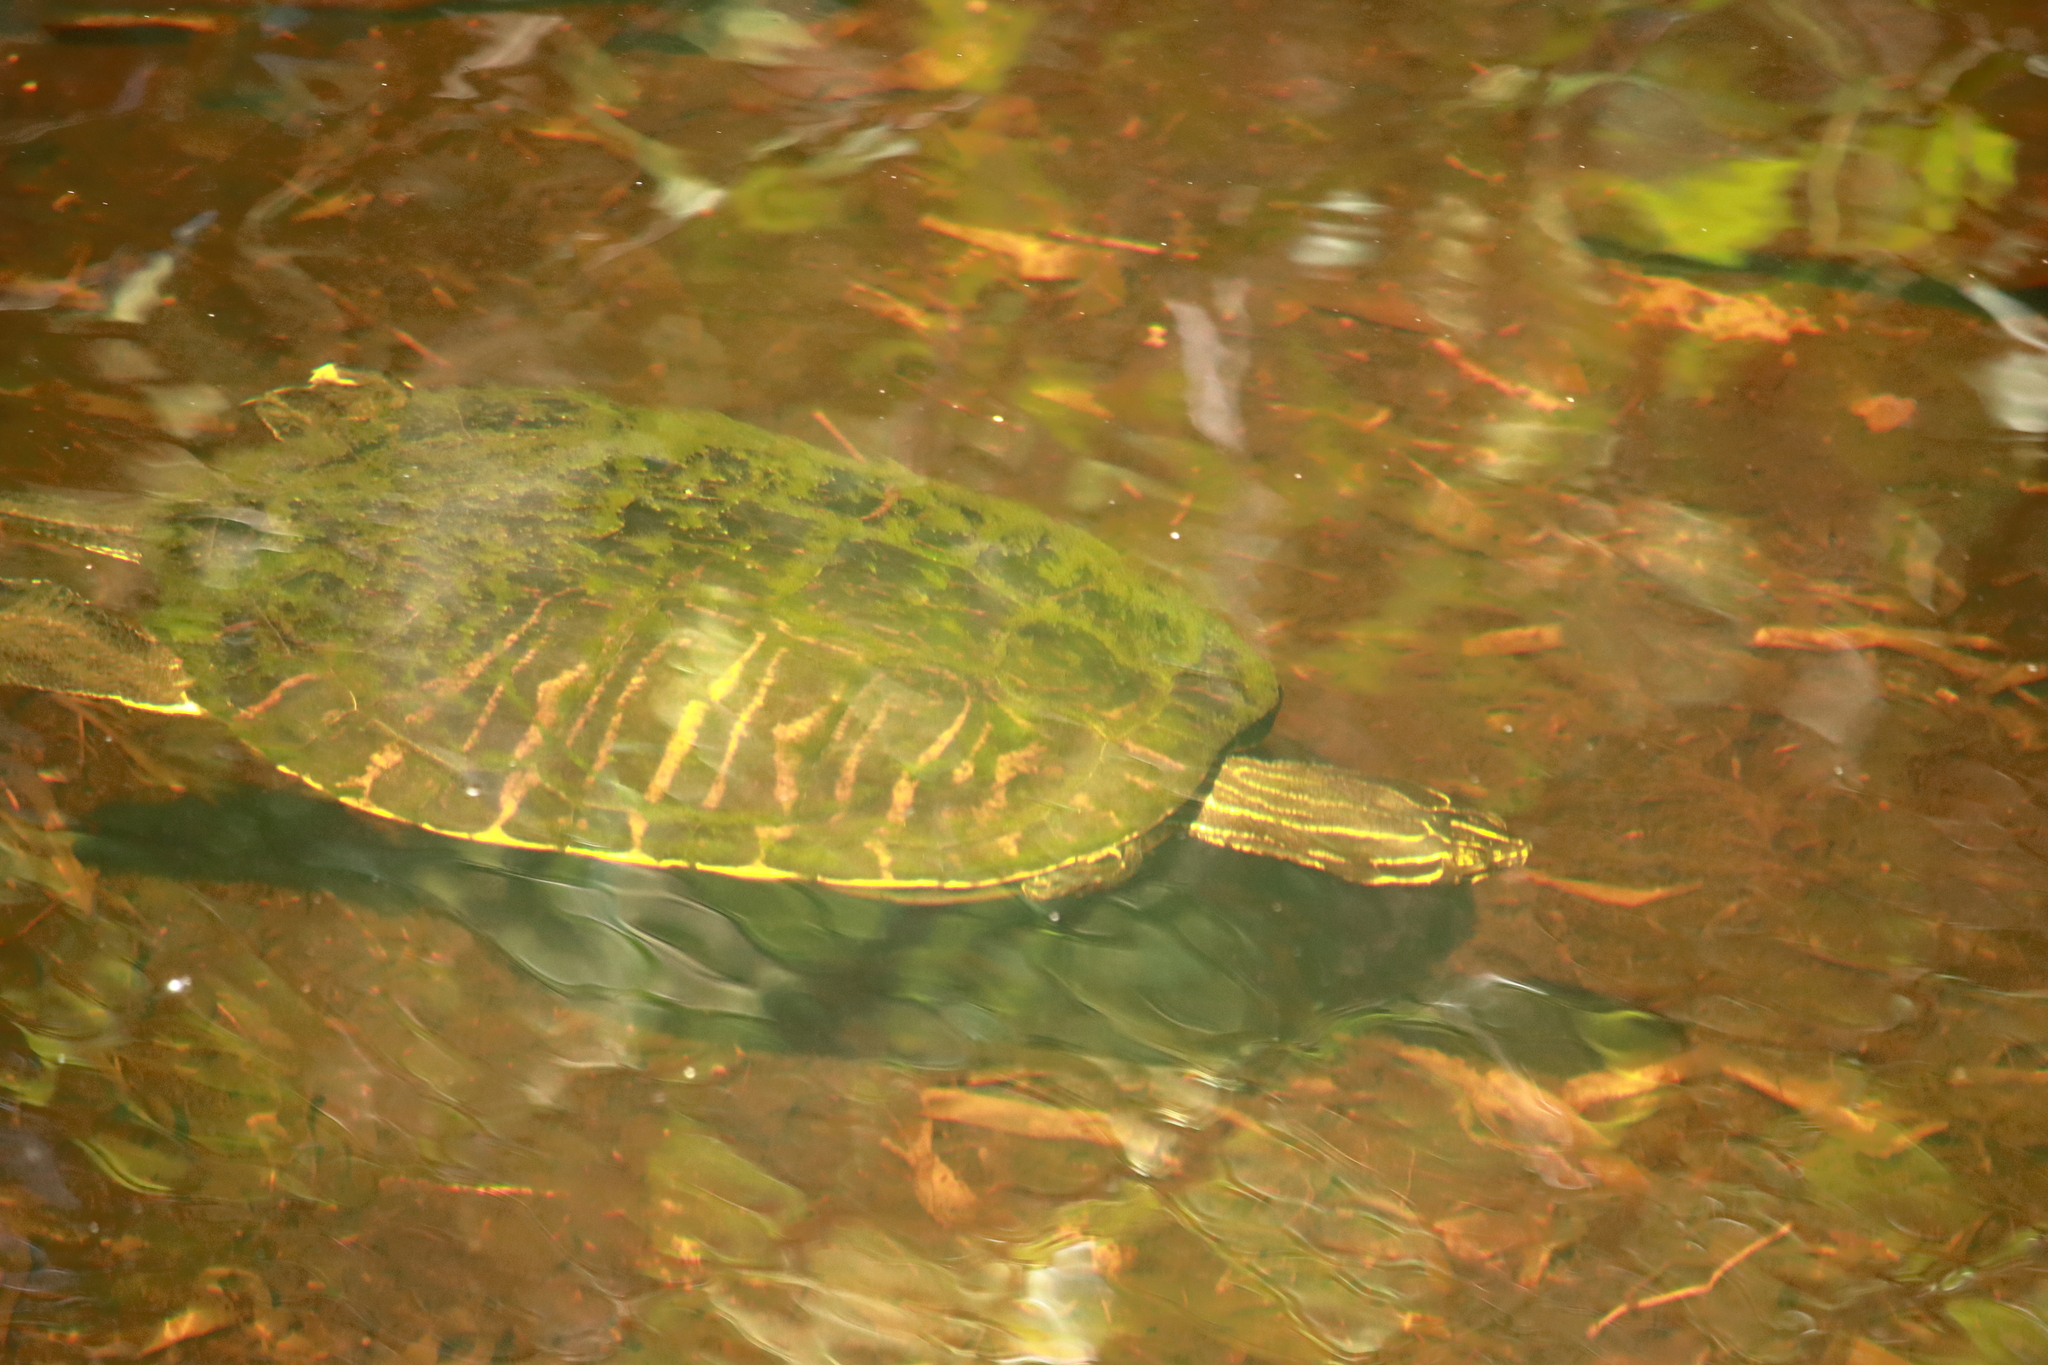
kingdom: Animalia
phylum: Chordata
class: Testudines
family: Emydidae
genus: Pseudemys
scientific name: Pseudemys peninsularis
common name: Peninsula cooter
